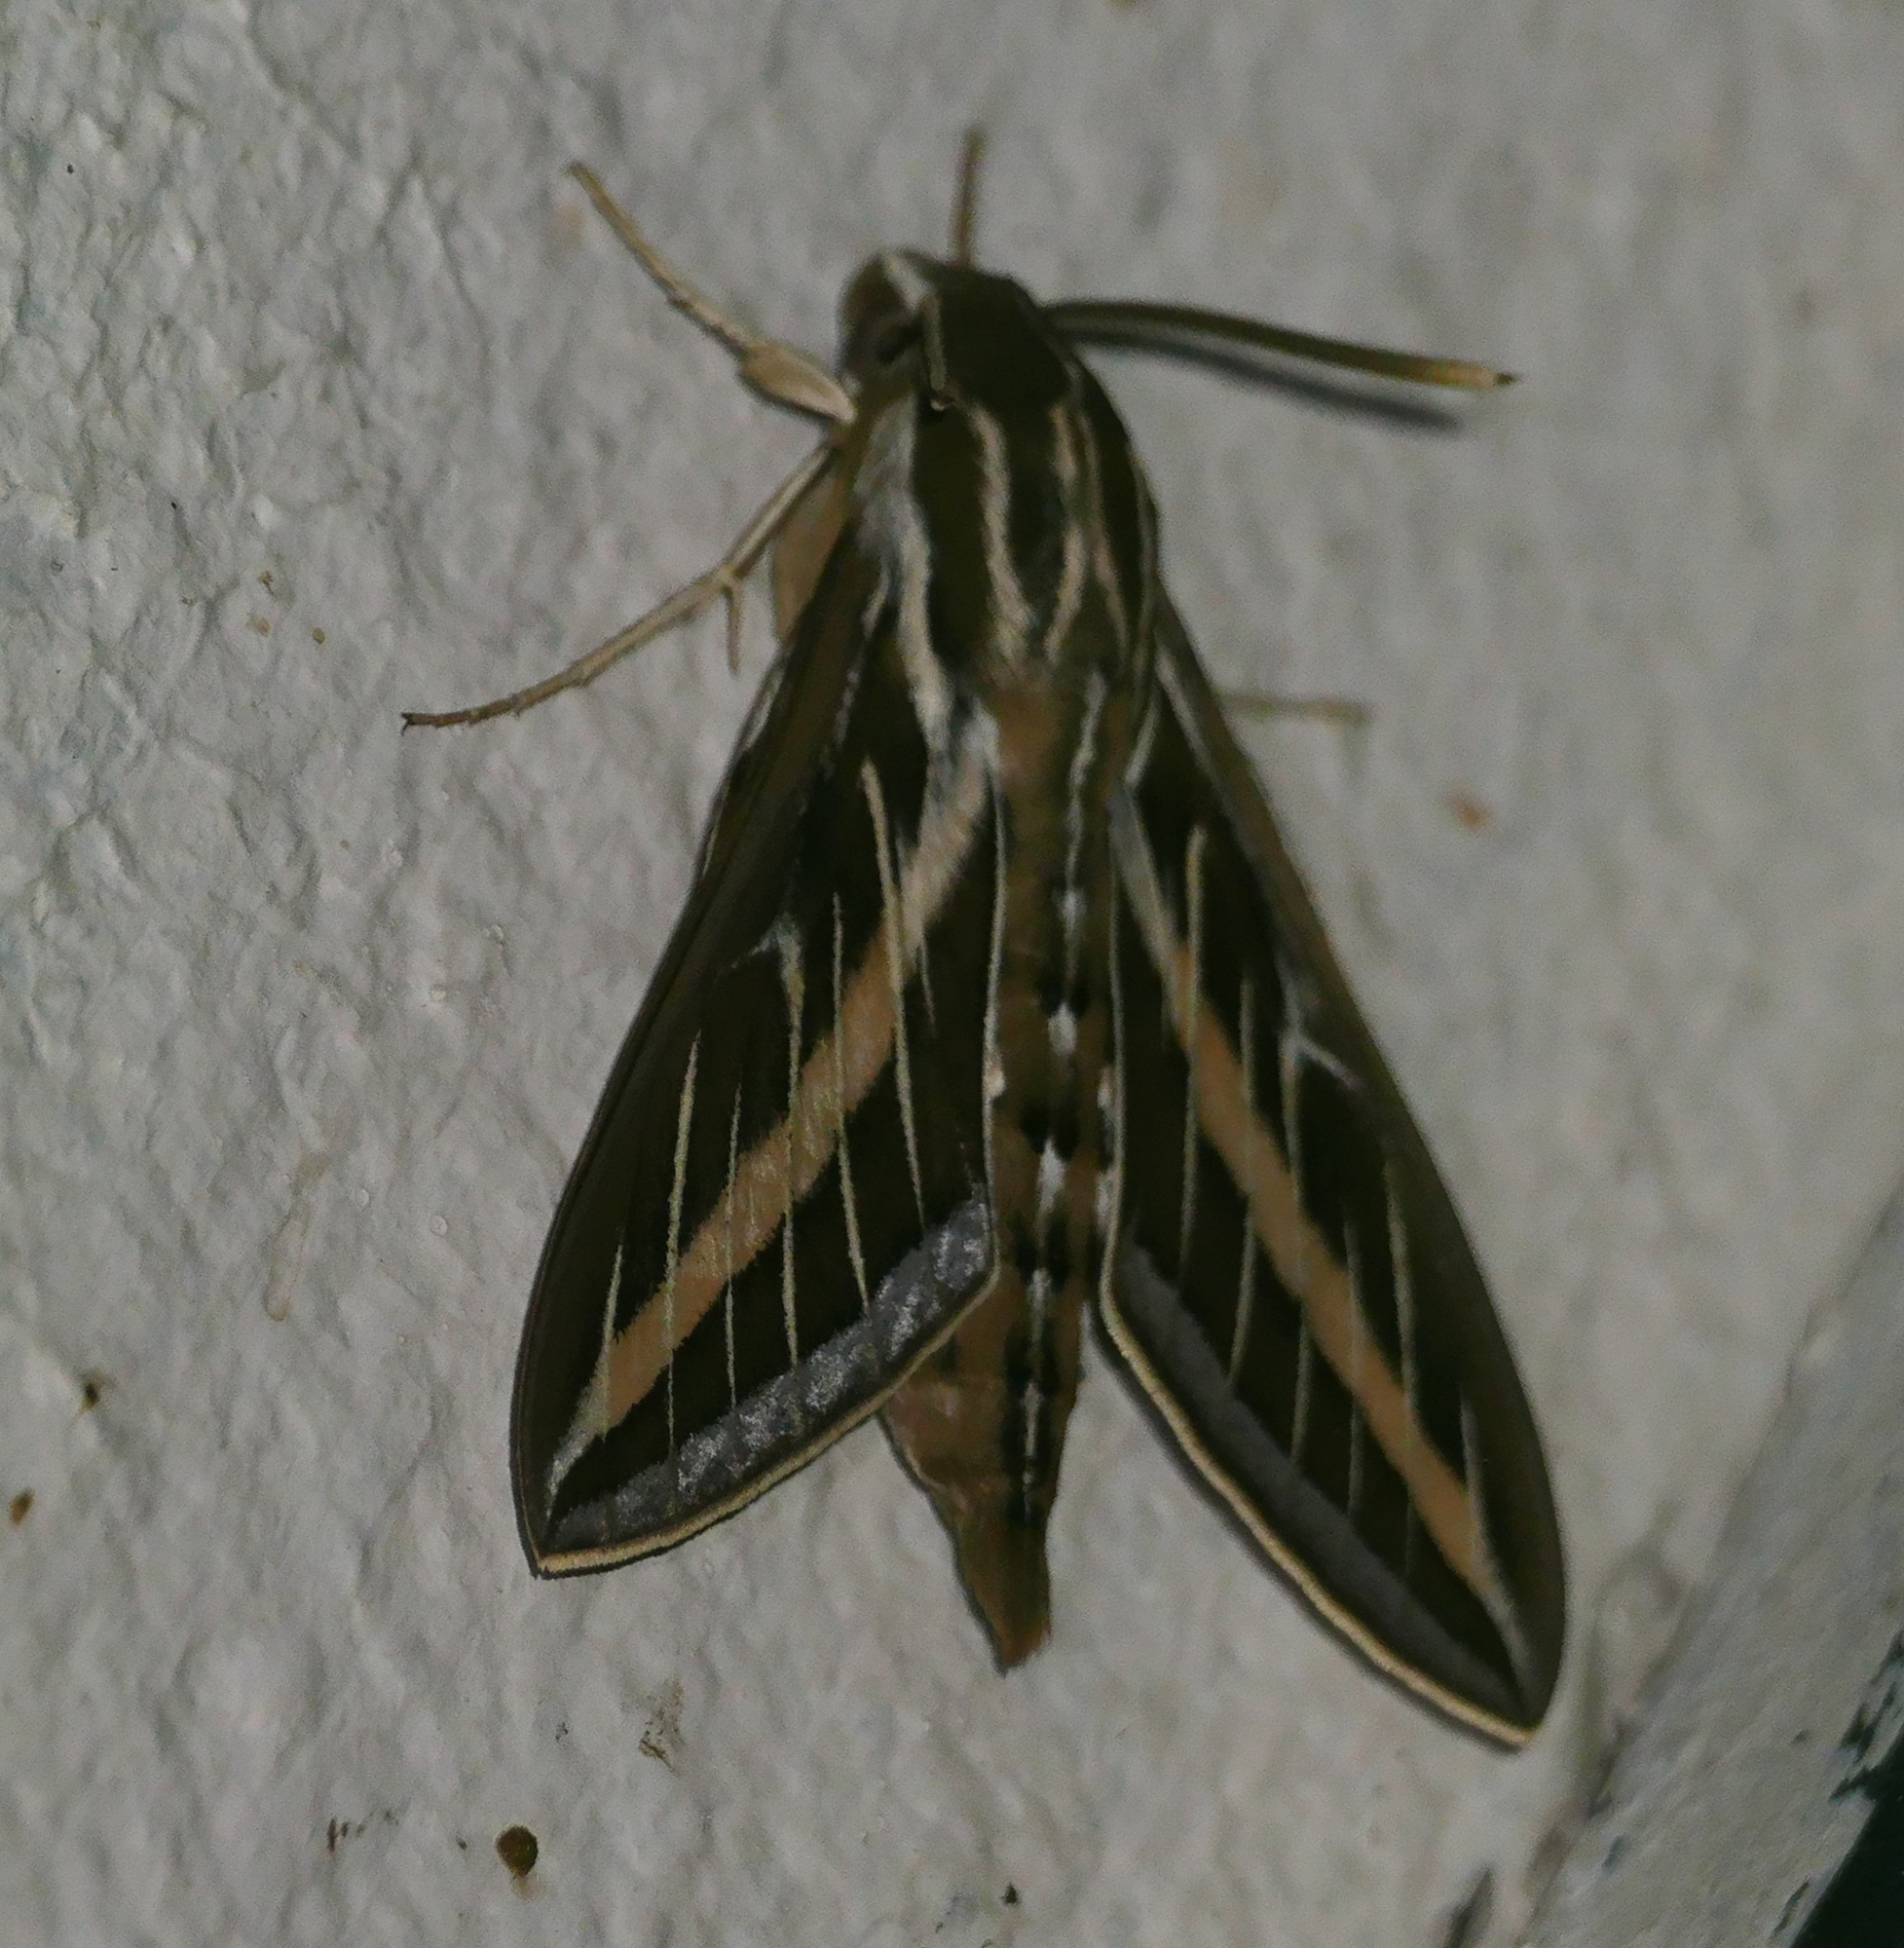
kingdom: Animalia
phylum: Arthropoda
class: Insecta
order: Lepidoptera
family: Sphingidae
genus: Hyles
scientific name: Hyles lineata
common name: White-lined sphinx
